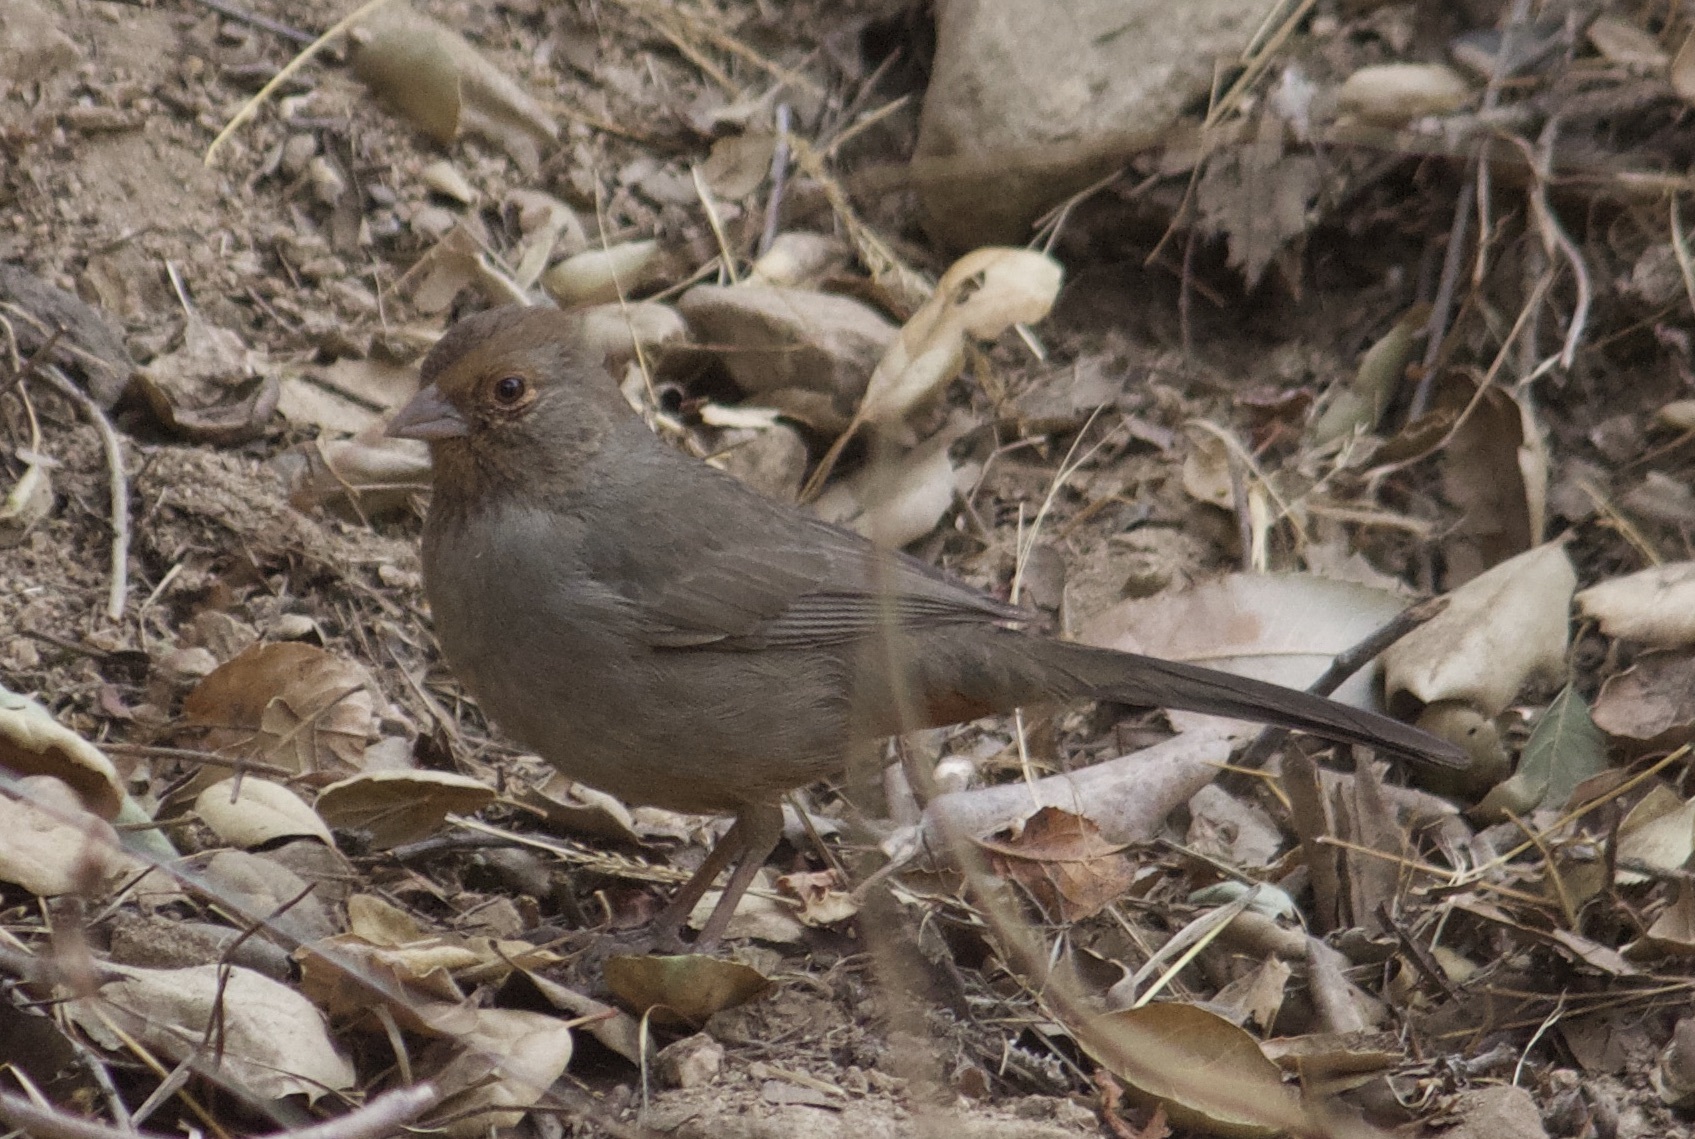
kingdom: Animalia
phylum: Chordata
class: Aves
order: Passeriformes
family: Passerellidae
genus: Melozone
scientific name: Melozone crissalis
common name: California towhee
